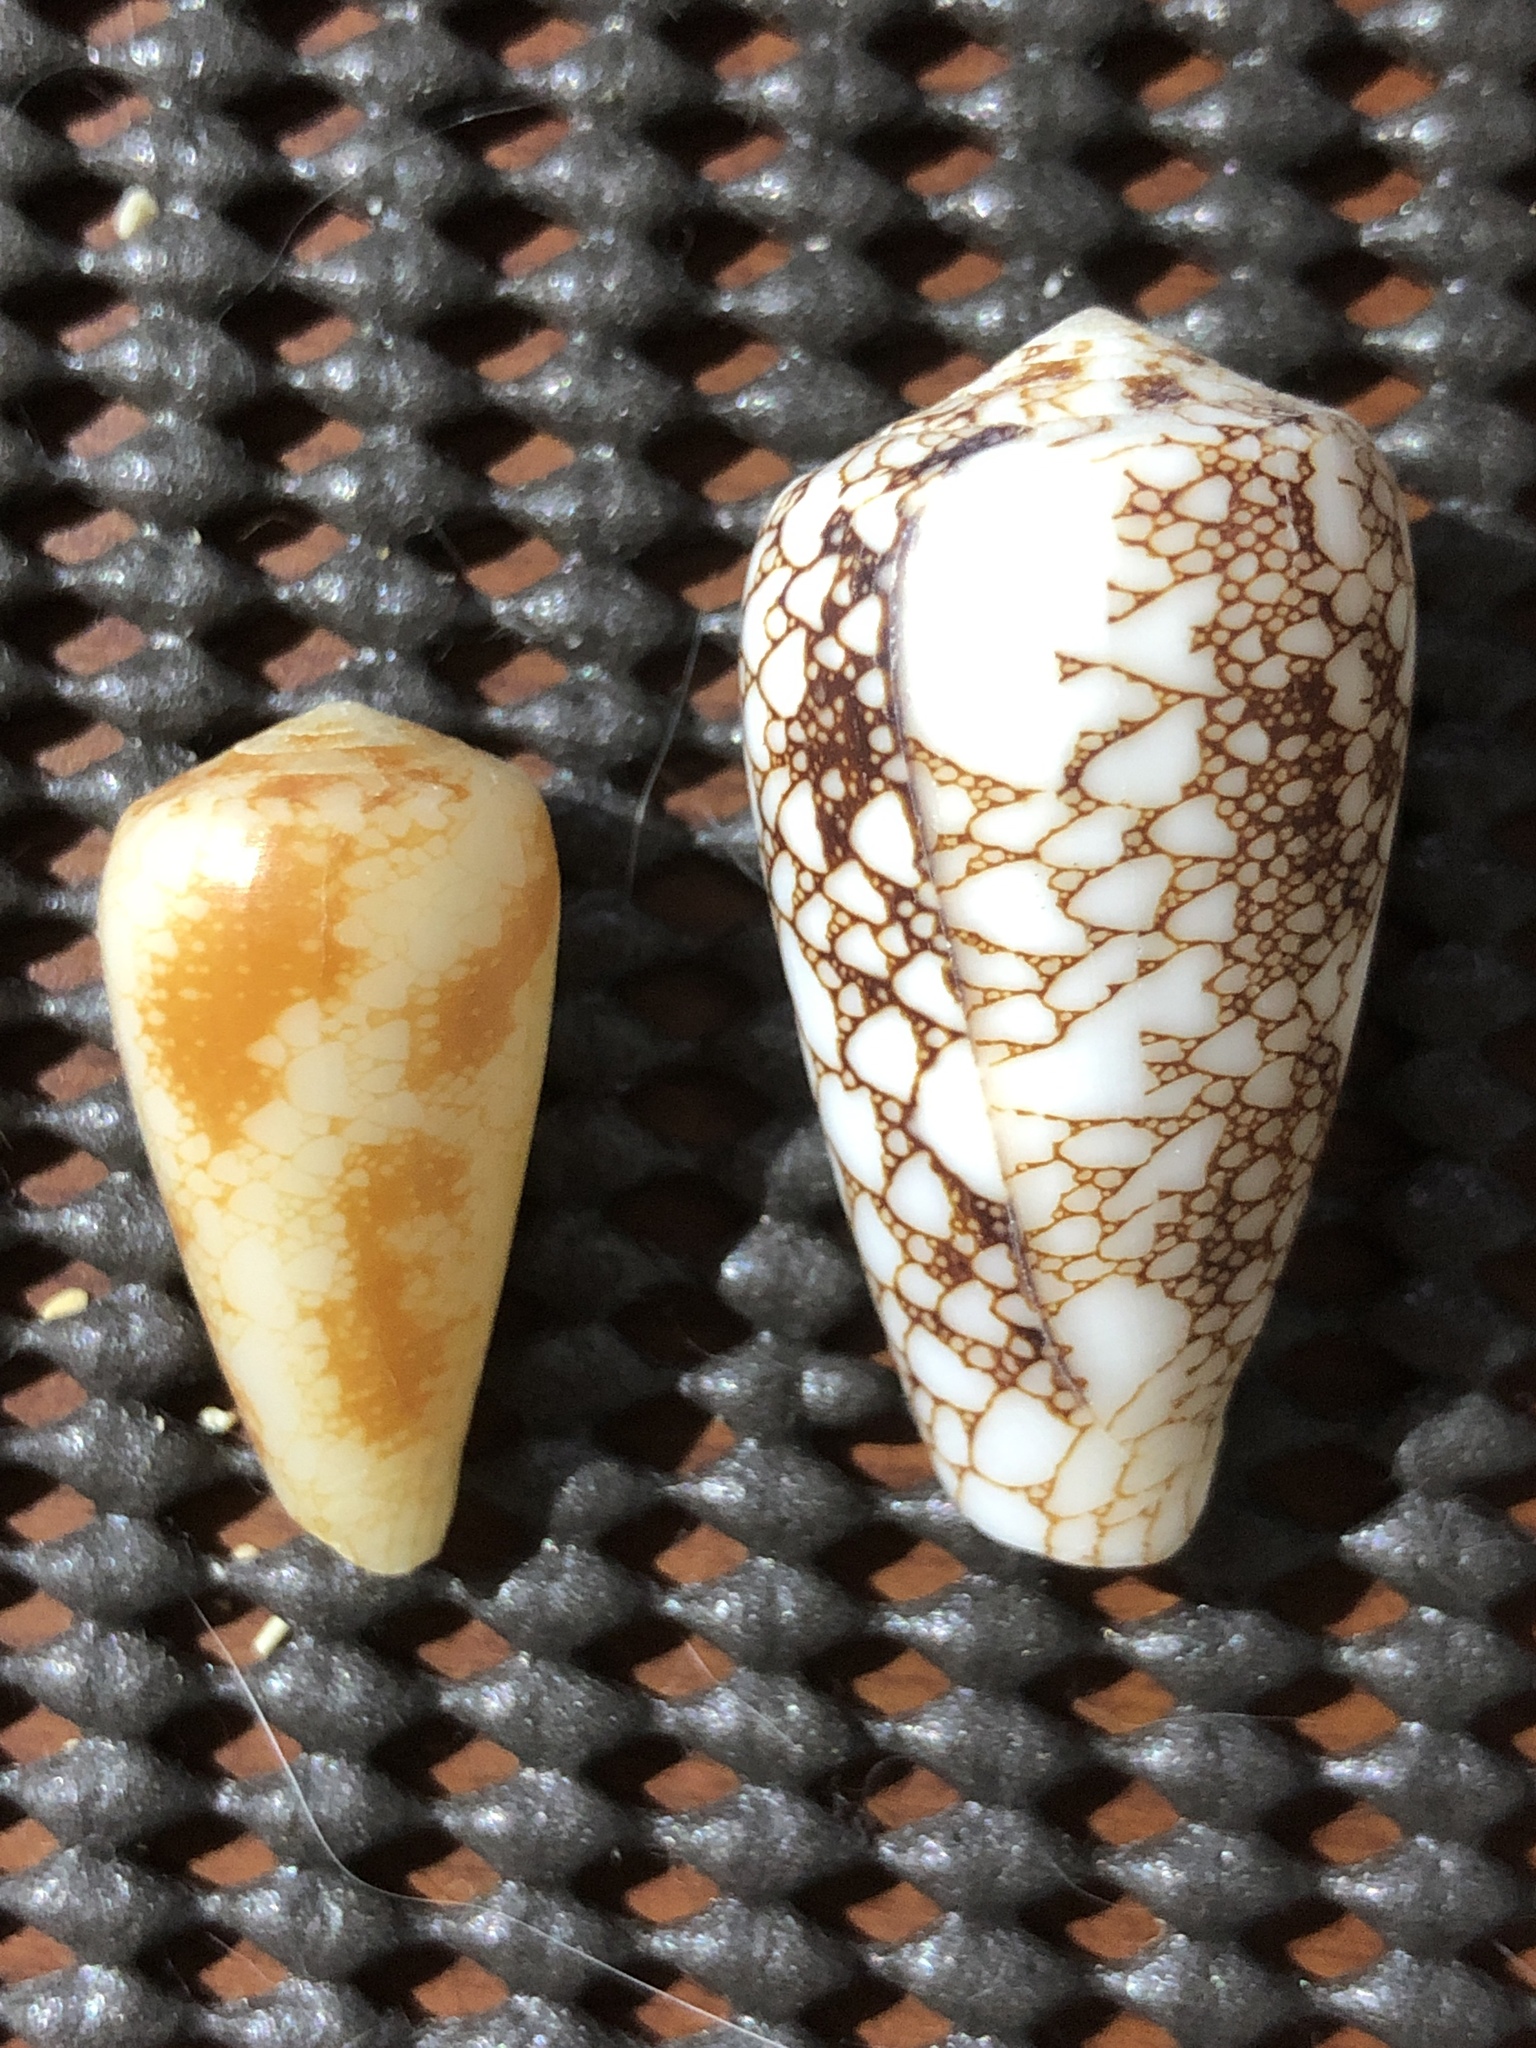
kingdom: Animalia
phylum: Mollusca
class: Gastropoda
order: Neogastropoda
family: Conidae
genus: Conus
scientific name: Conus omaria
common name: Omaria cone
